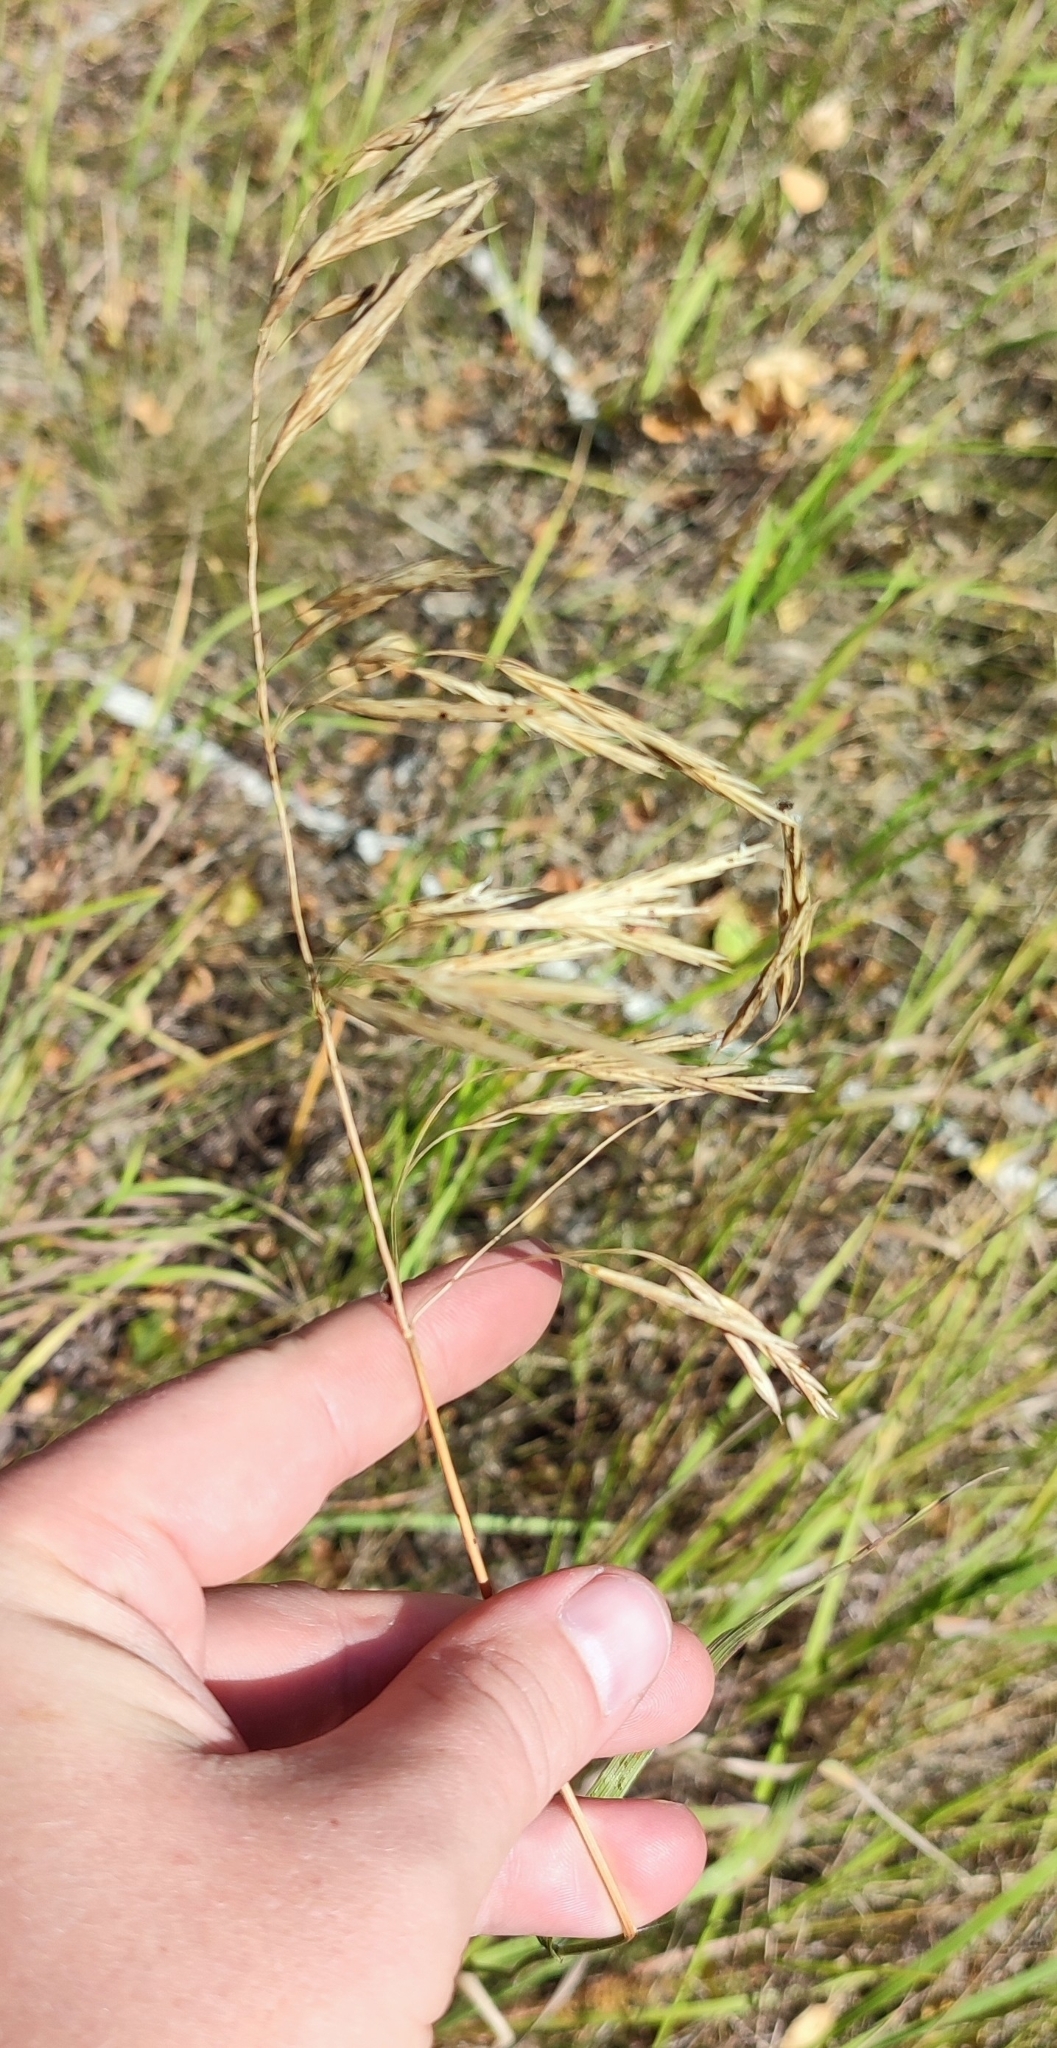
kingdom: Plantae
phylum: Tracheophyta
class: Liliopsida
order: Poales
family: Poaceae
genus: Bromus
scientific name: Bromus inermis
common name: Smooth brome
